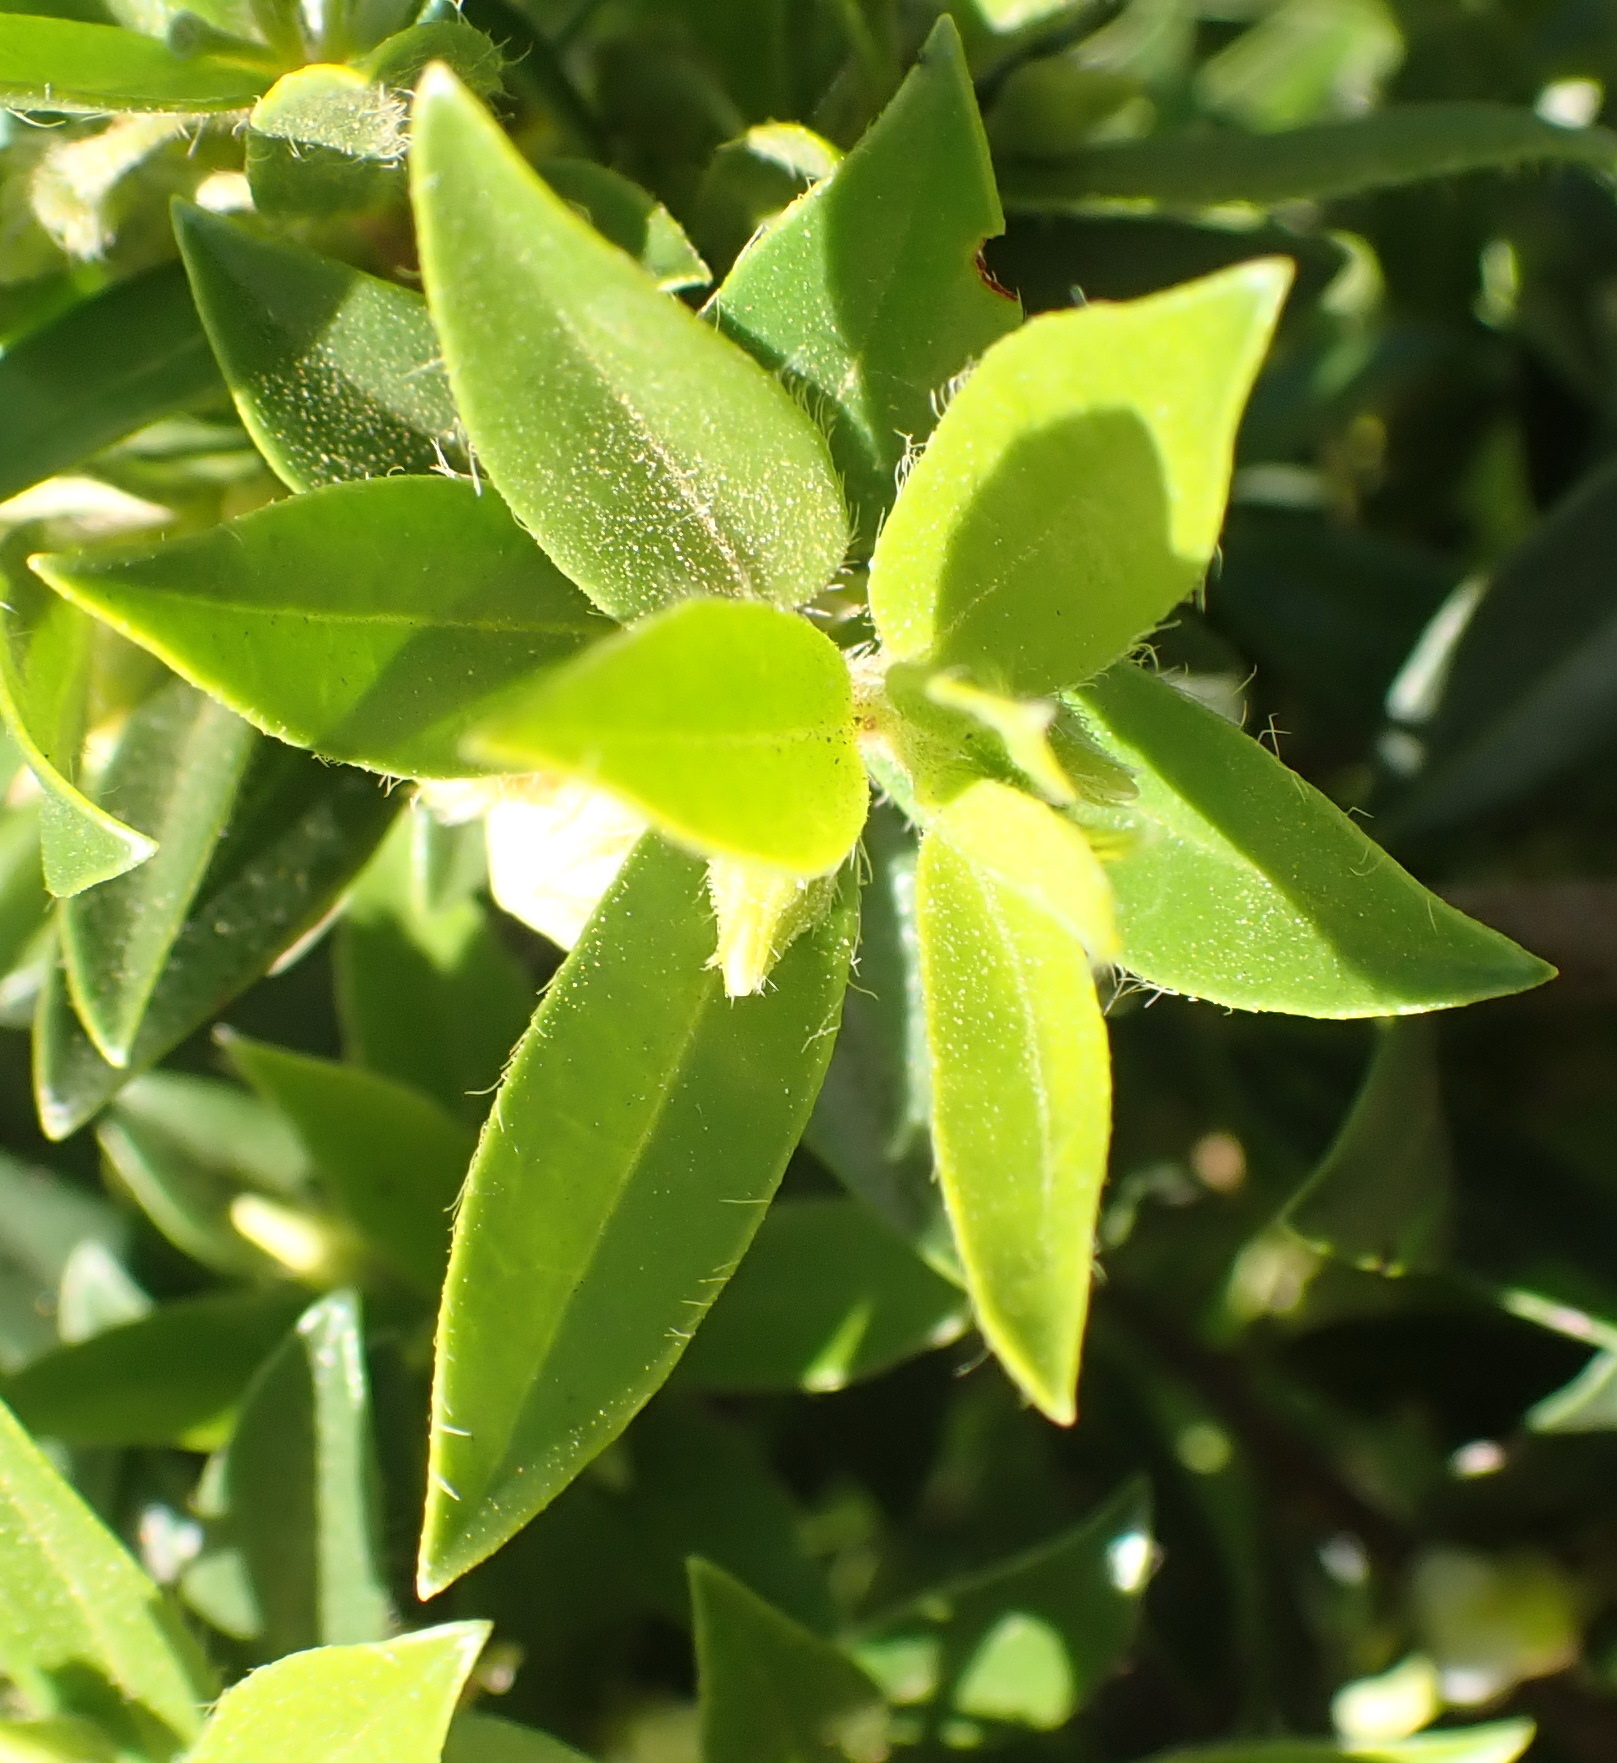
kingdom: Plantae
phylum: Tracheophyta
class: Magnoliopsida
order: Ericales
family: Ebenaceae
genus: Diospyros
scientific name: Diospyros glabra
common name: Fynbos star apple
